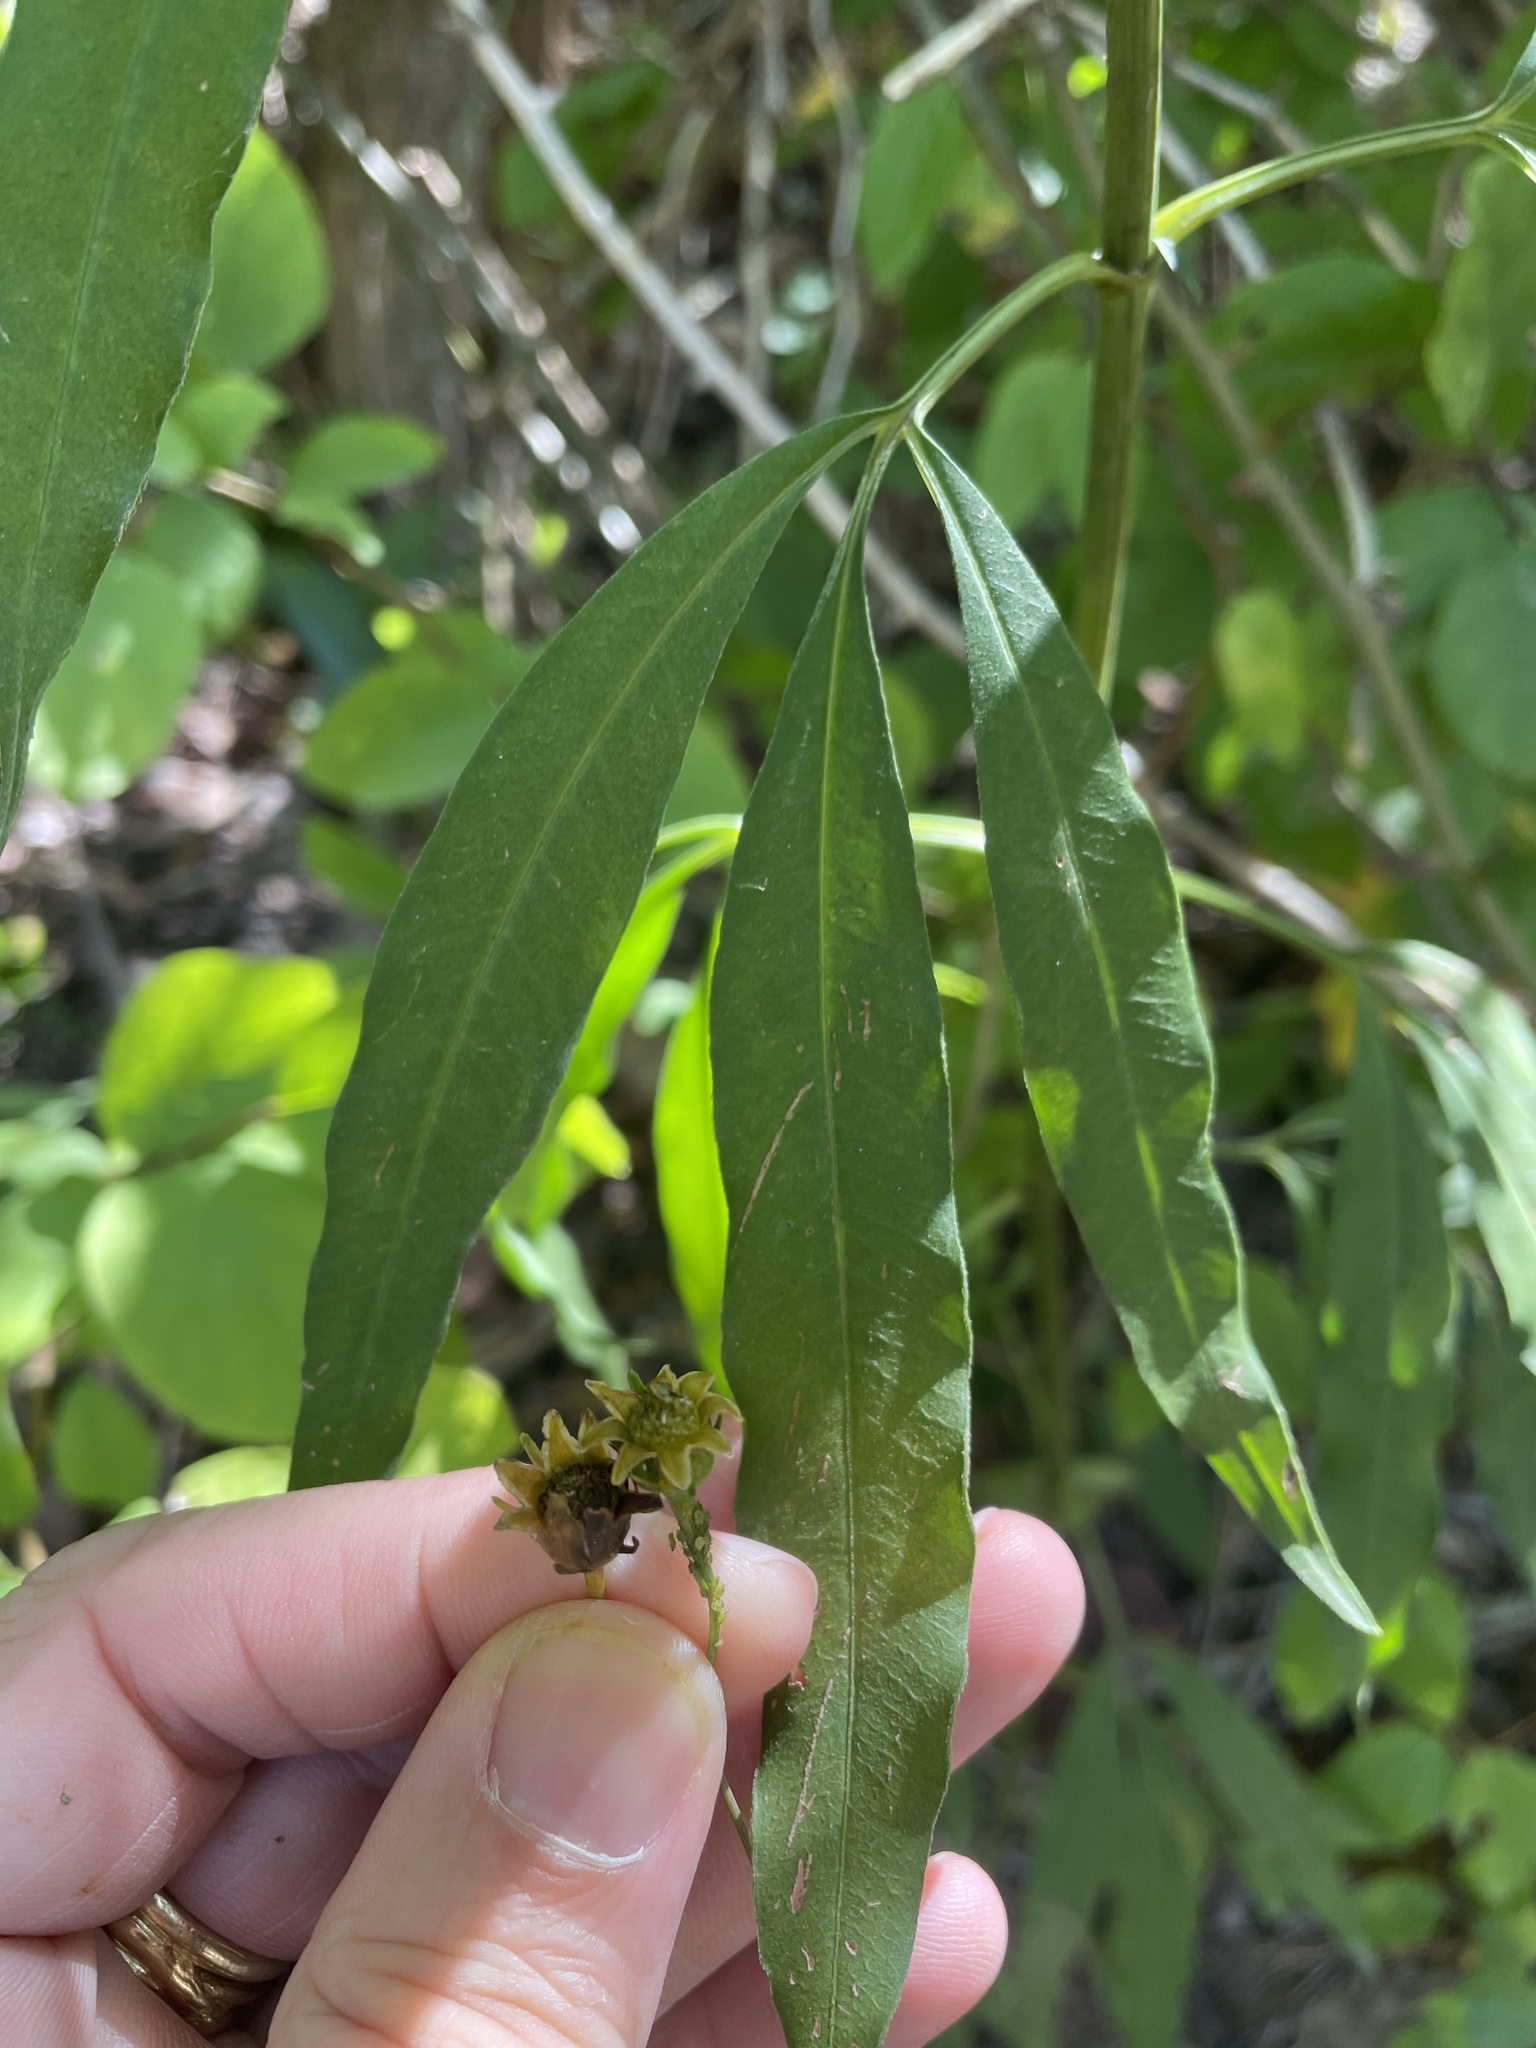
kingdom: Plantae
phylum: Tracheophyta
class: Magnoliopsida
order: Asterales
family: Asteraceae
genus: Coreopsis
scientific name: Coreopsis tripteris
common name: Tall coreopsis
